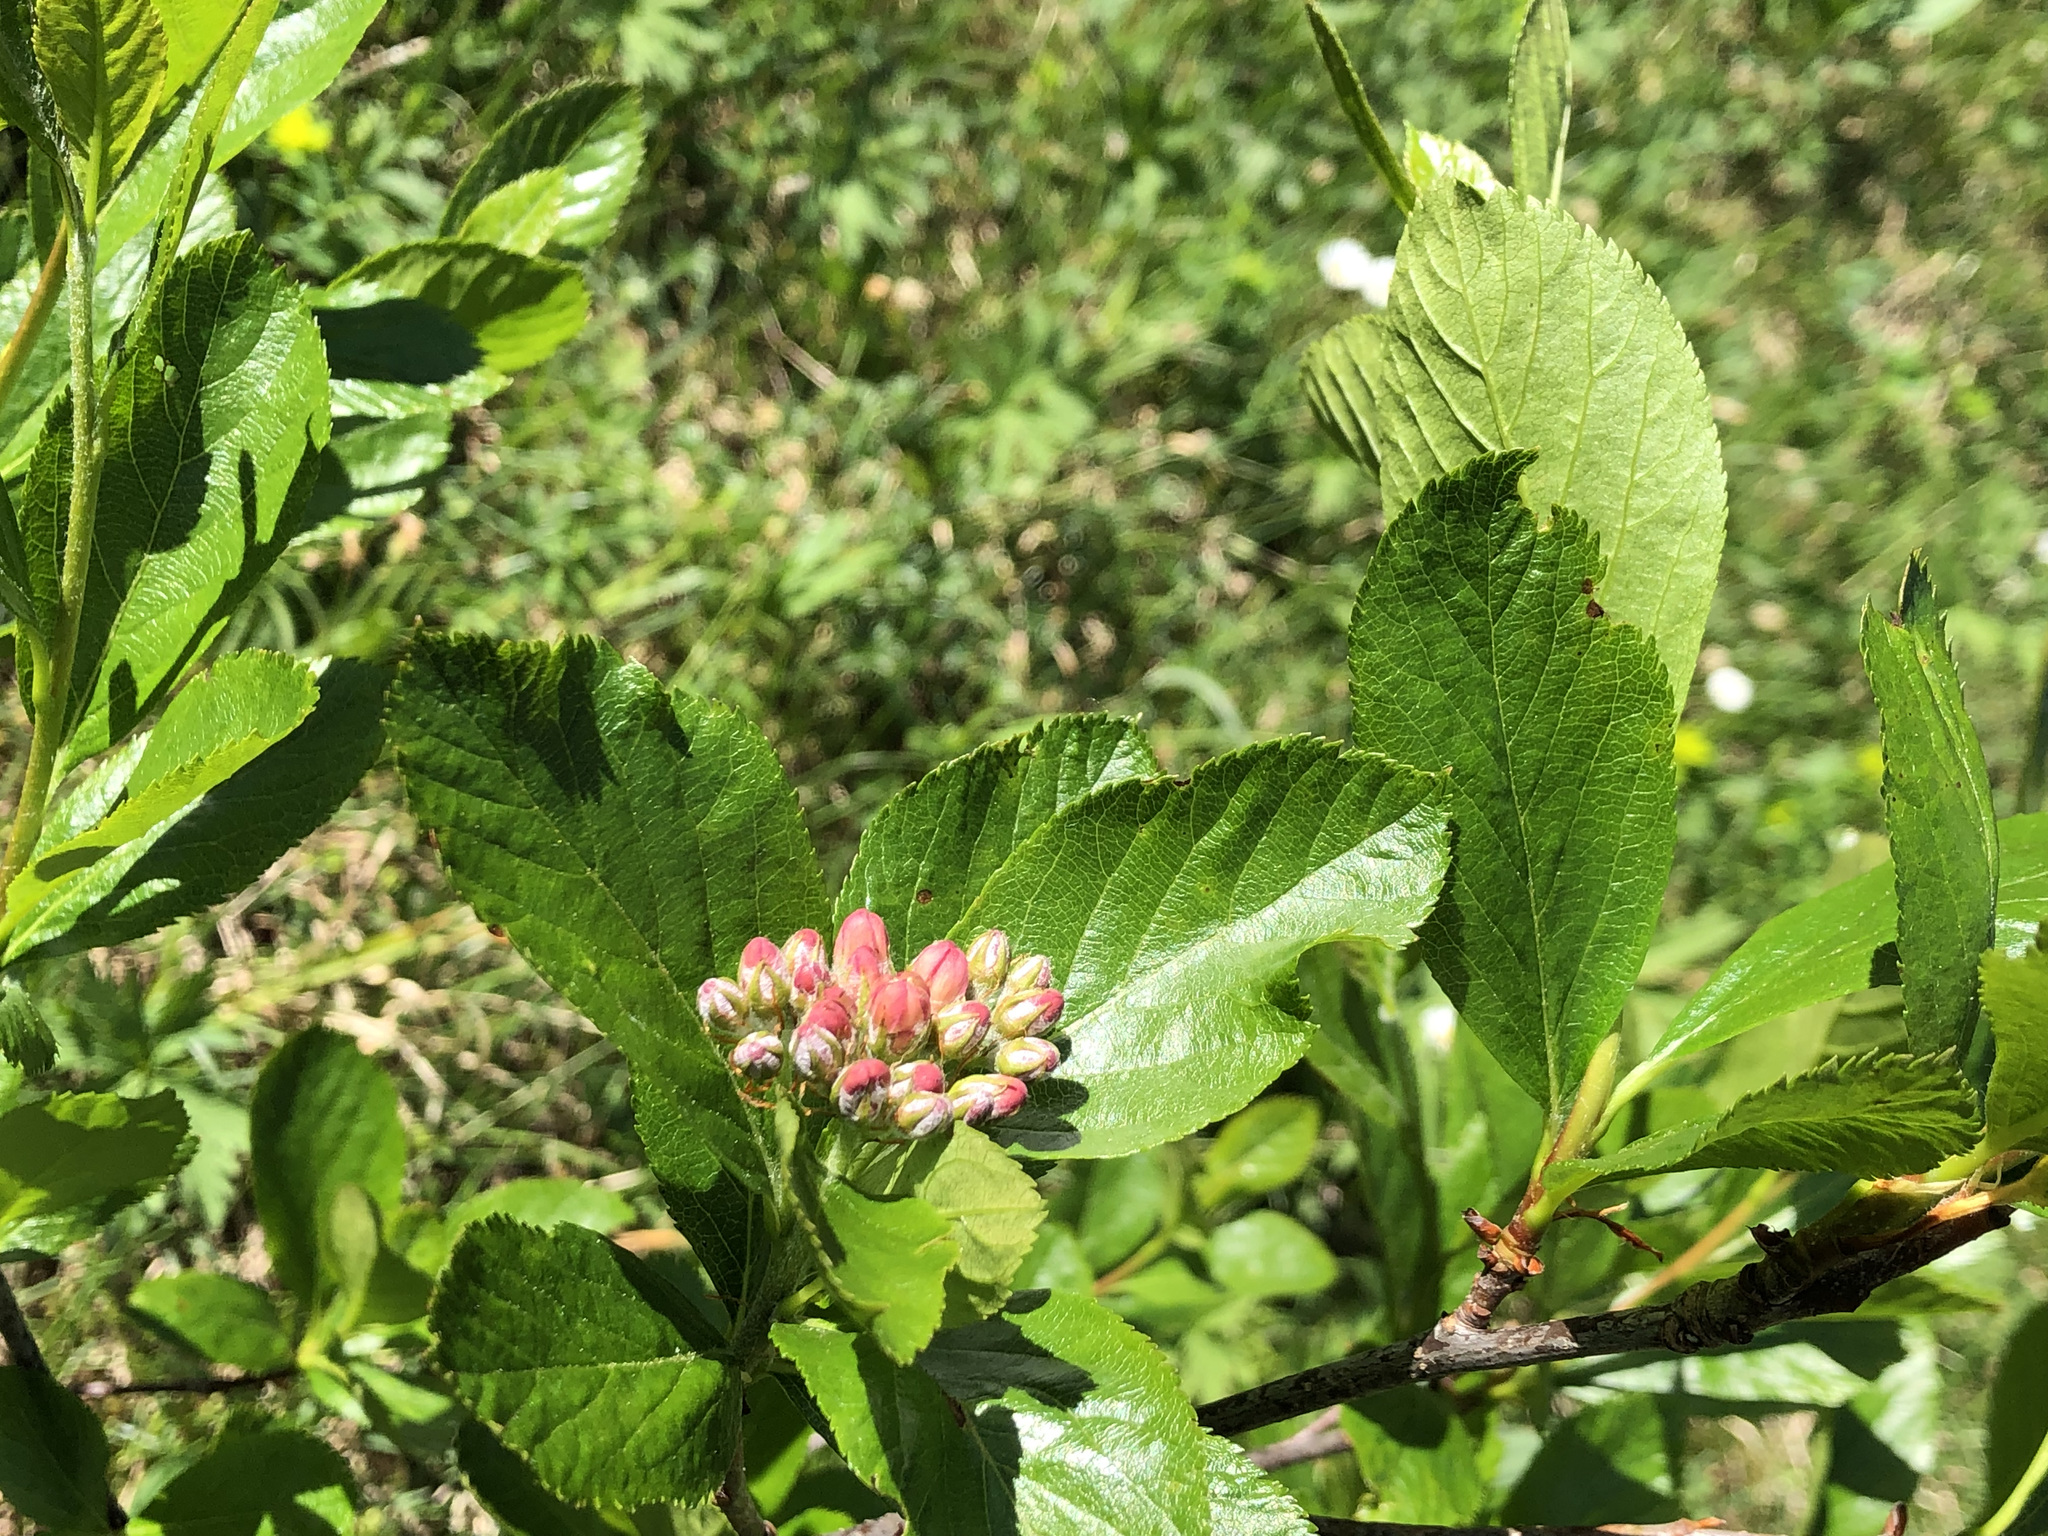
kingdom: Plantae
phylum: Tracheophyta
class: Magnoliopsida
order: Rosales
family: Rosaceae
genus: Chamaemespilus
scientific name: Chamaemespilus alpina
